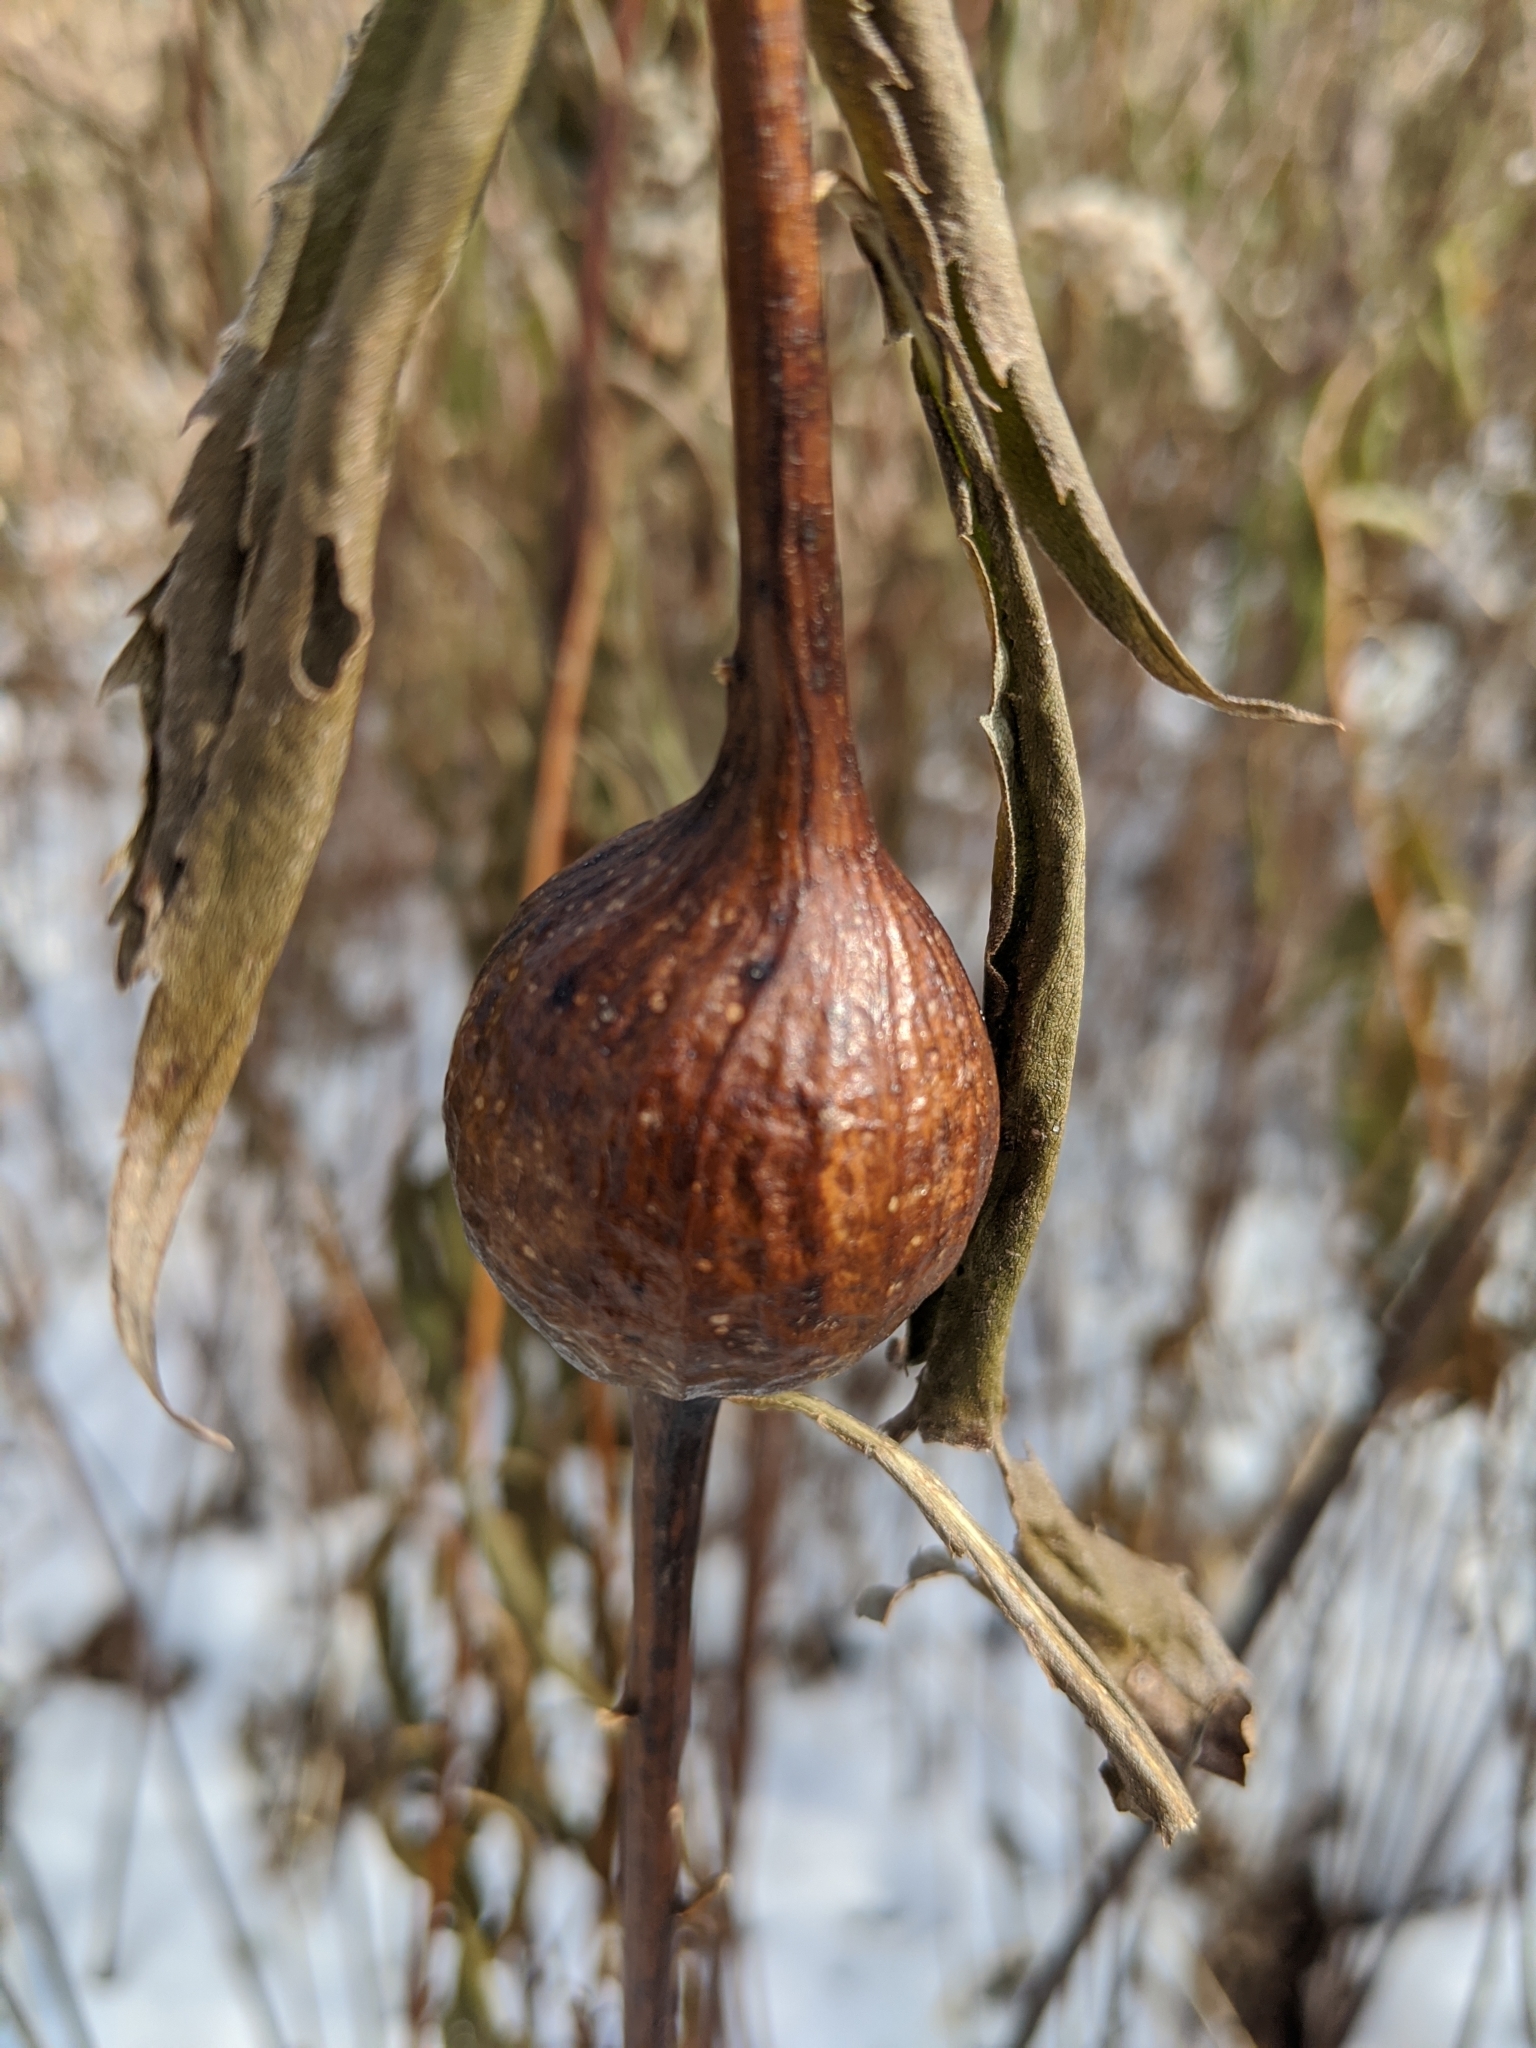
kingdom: Animalia
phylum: Arthropoda
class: Insecta
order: Diptera
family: Tephritidae
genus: Eurosta
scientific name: Eurosta solidaginis
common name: Goldenrod gall fly
